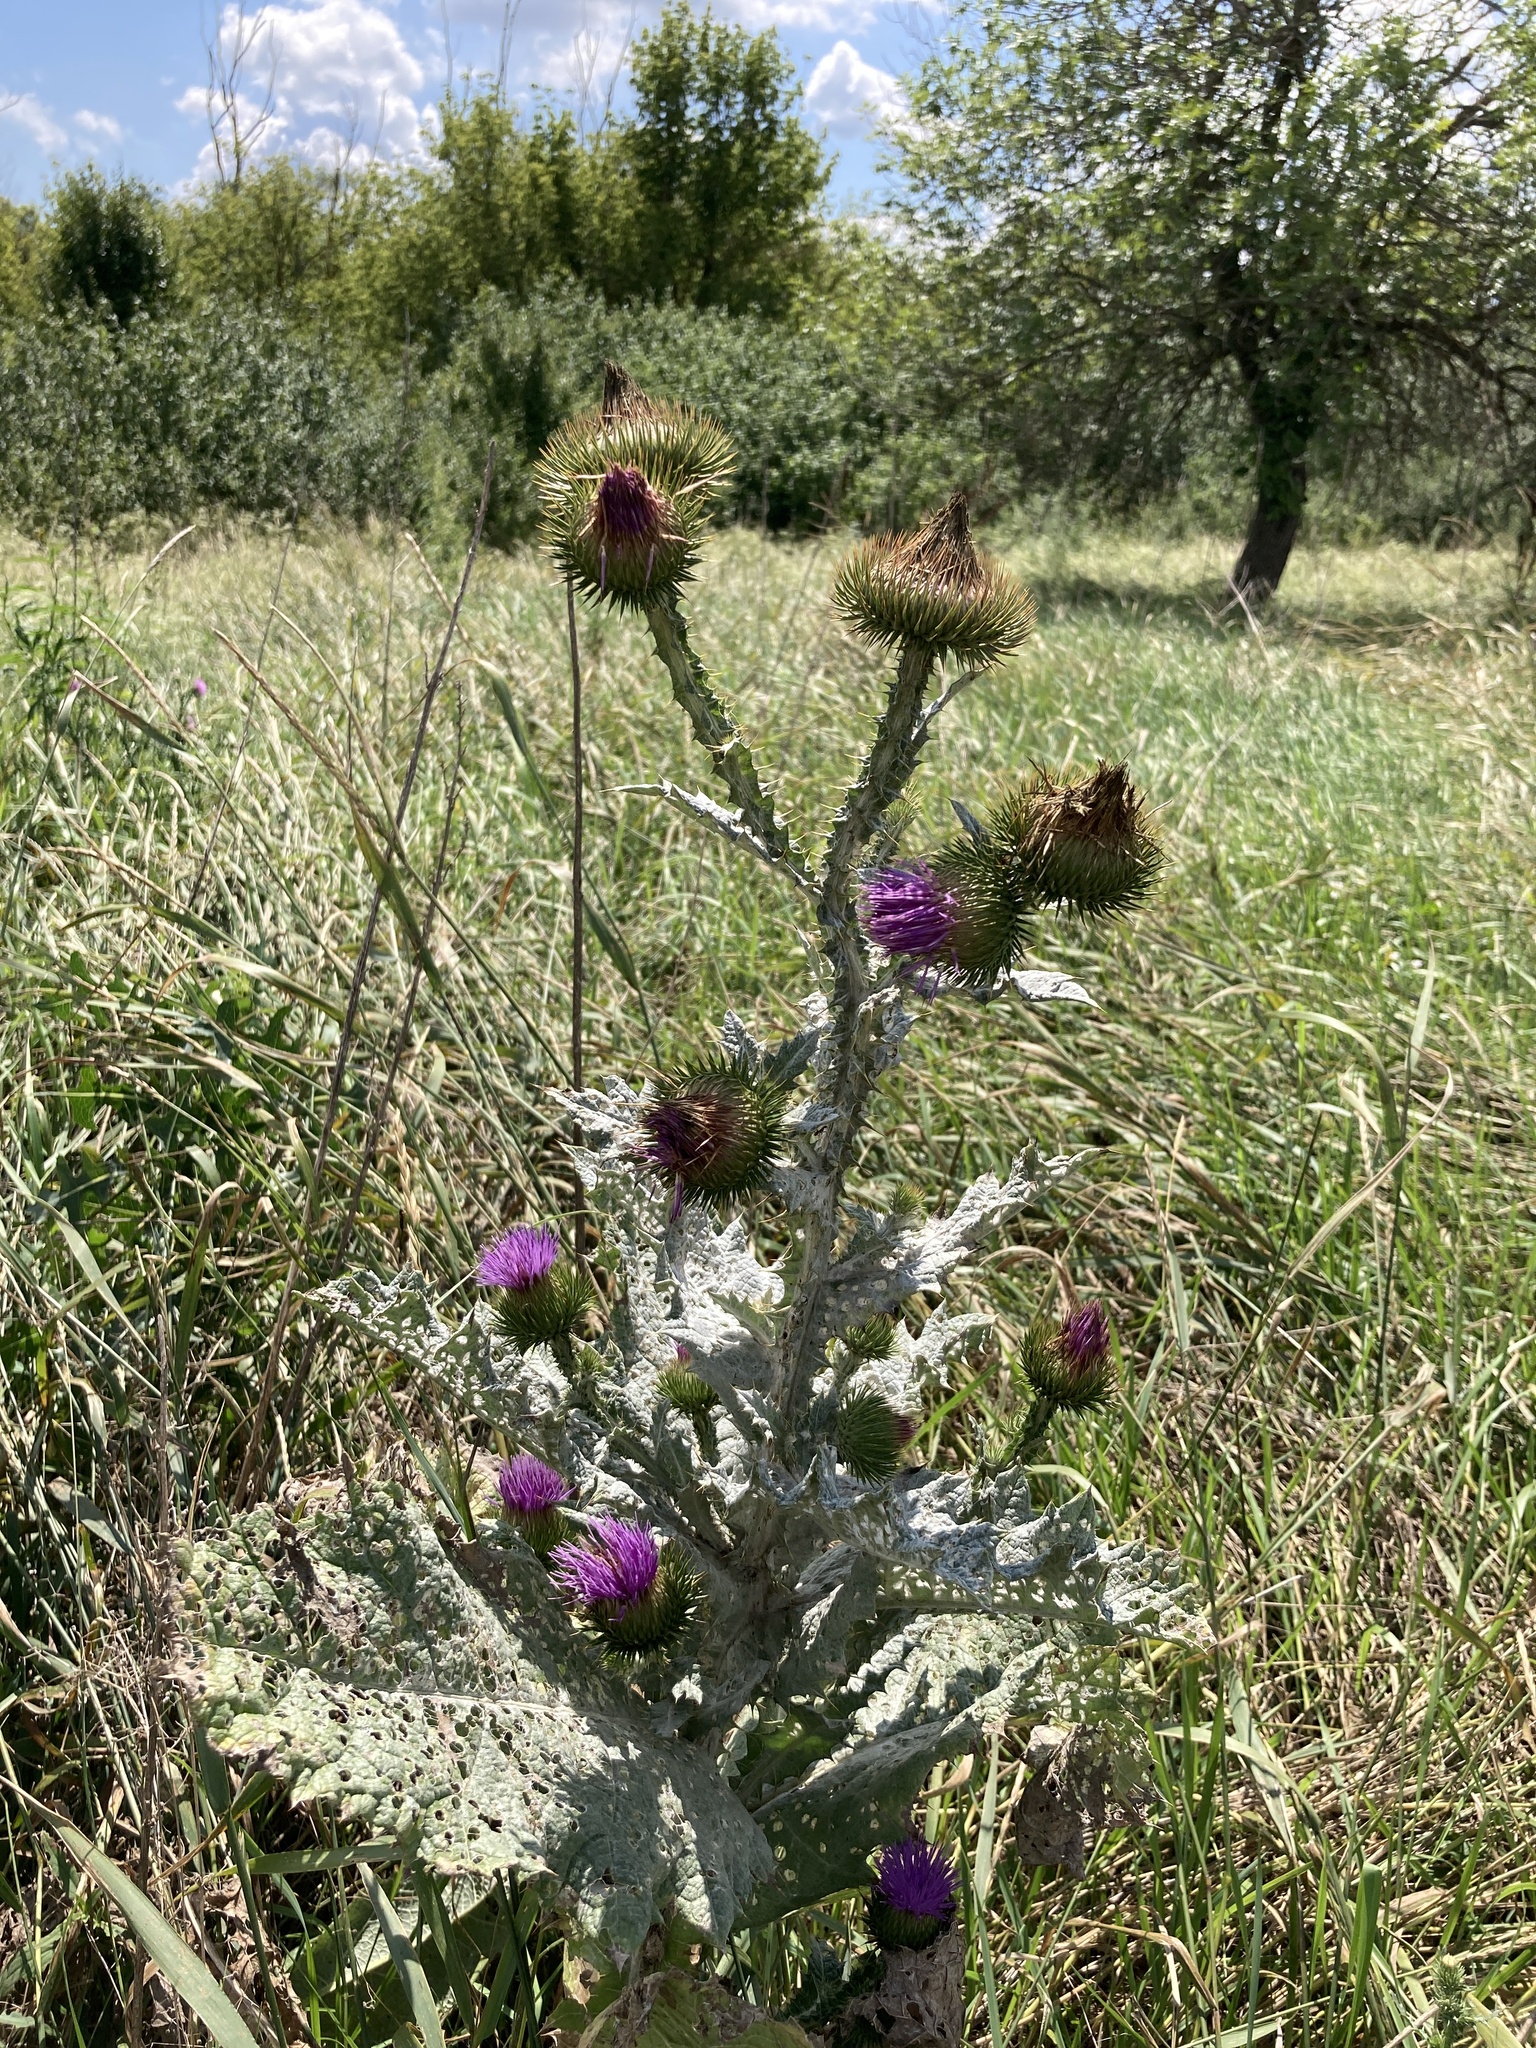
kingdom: Plantae
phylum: Tracheophyta
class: Magnoliopsida
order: Asterales
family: Asteraceae
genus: Onopordum
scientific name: Onopordum acanthium
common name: Scotch thistle
